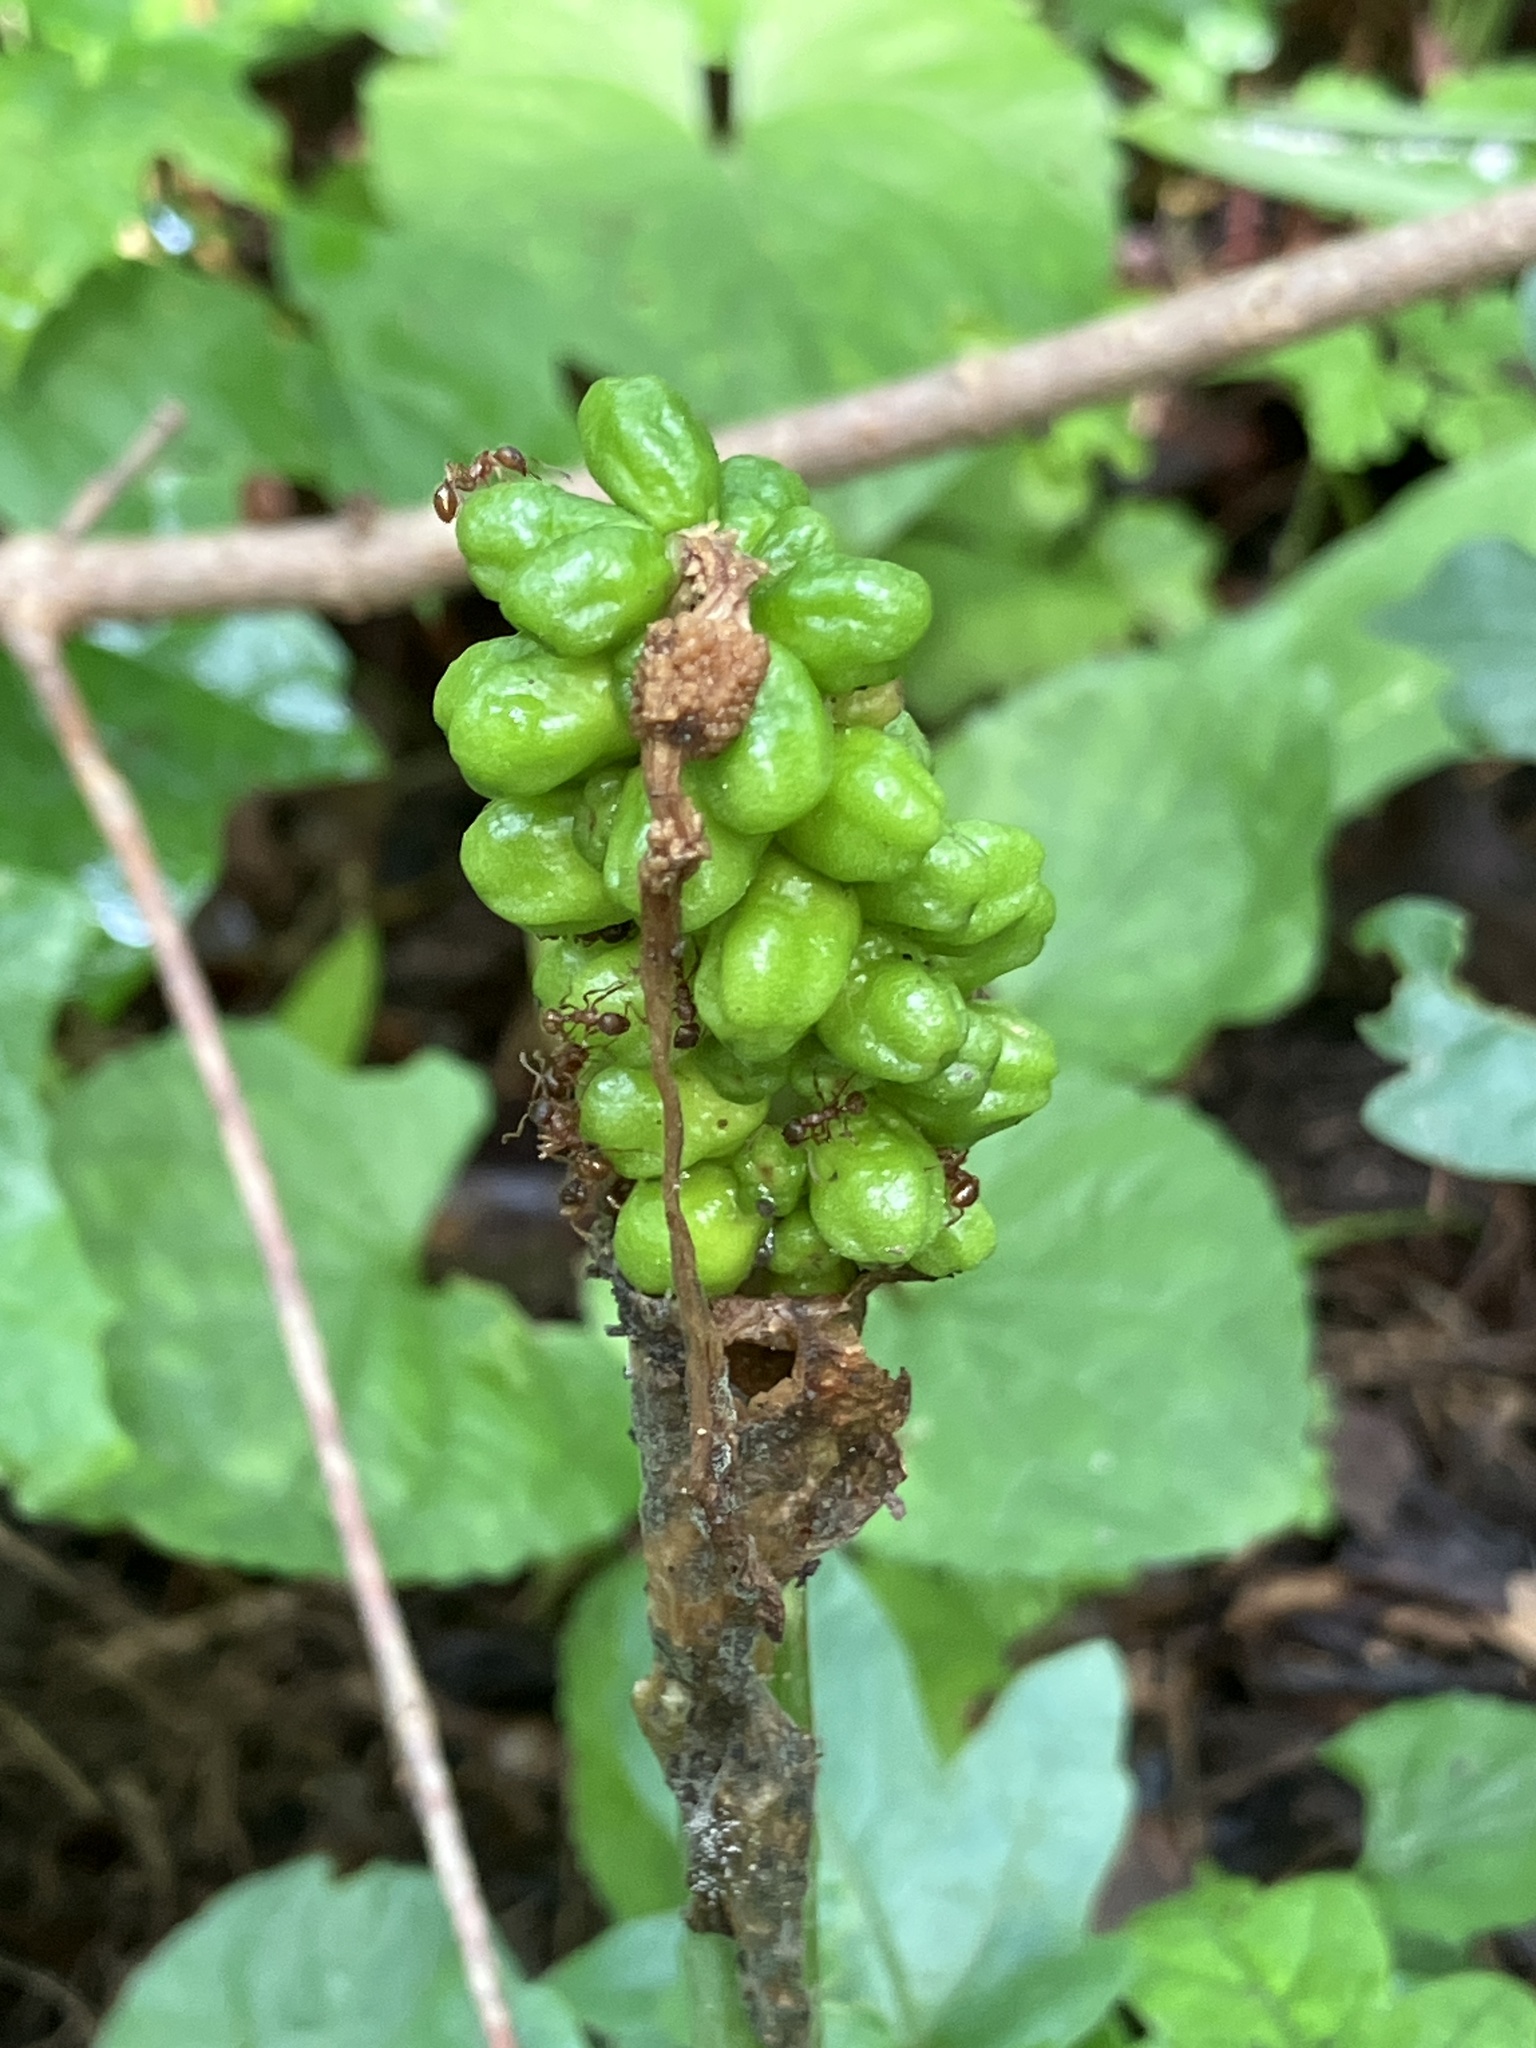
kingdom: Plantae
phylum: Tracheophyta
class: Liliopsida
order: Alismatales
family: Araceae
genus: Arum
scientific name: Arum cylindraceum
